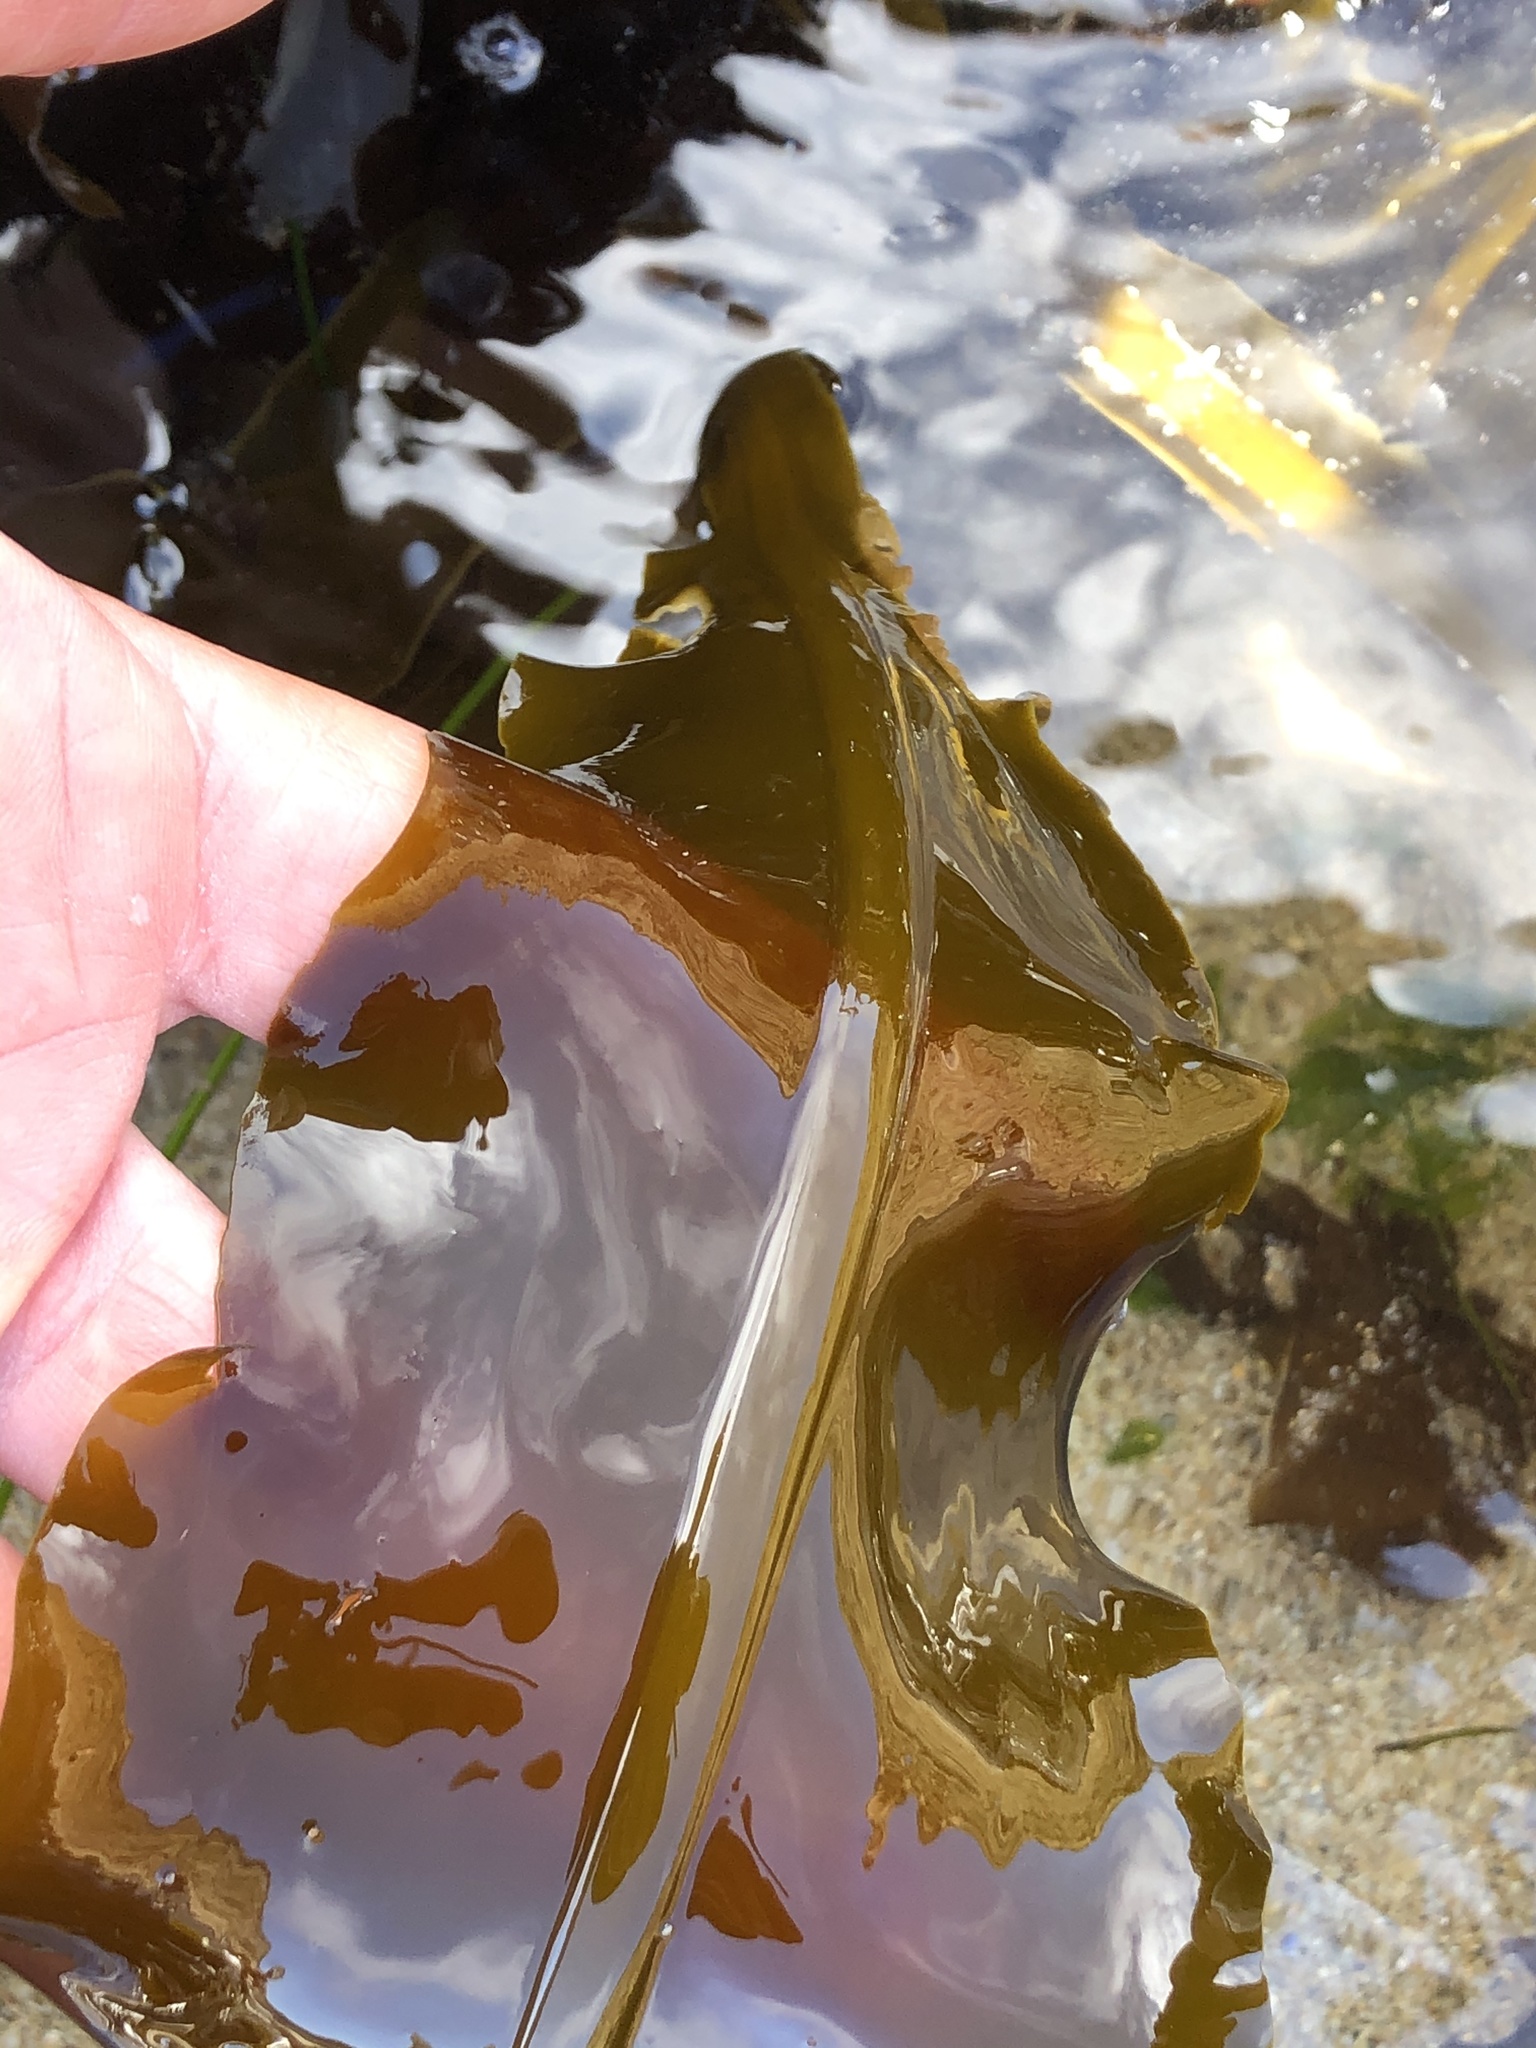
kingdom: Chromista
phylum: Ochrophyta
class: Phaeophyceae
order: Laminariales
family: Alariaceae
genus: Alaria
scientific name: Alaria marginata
